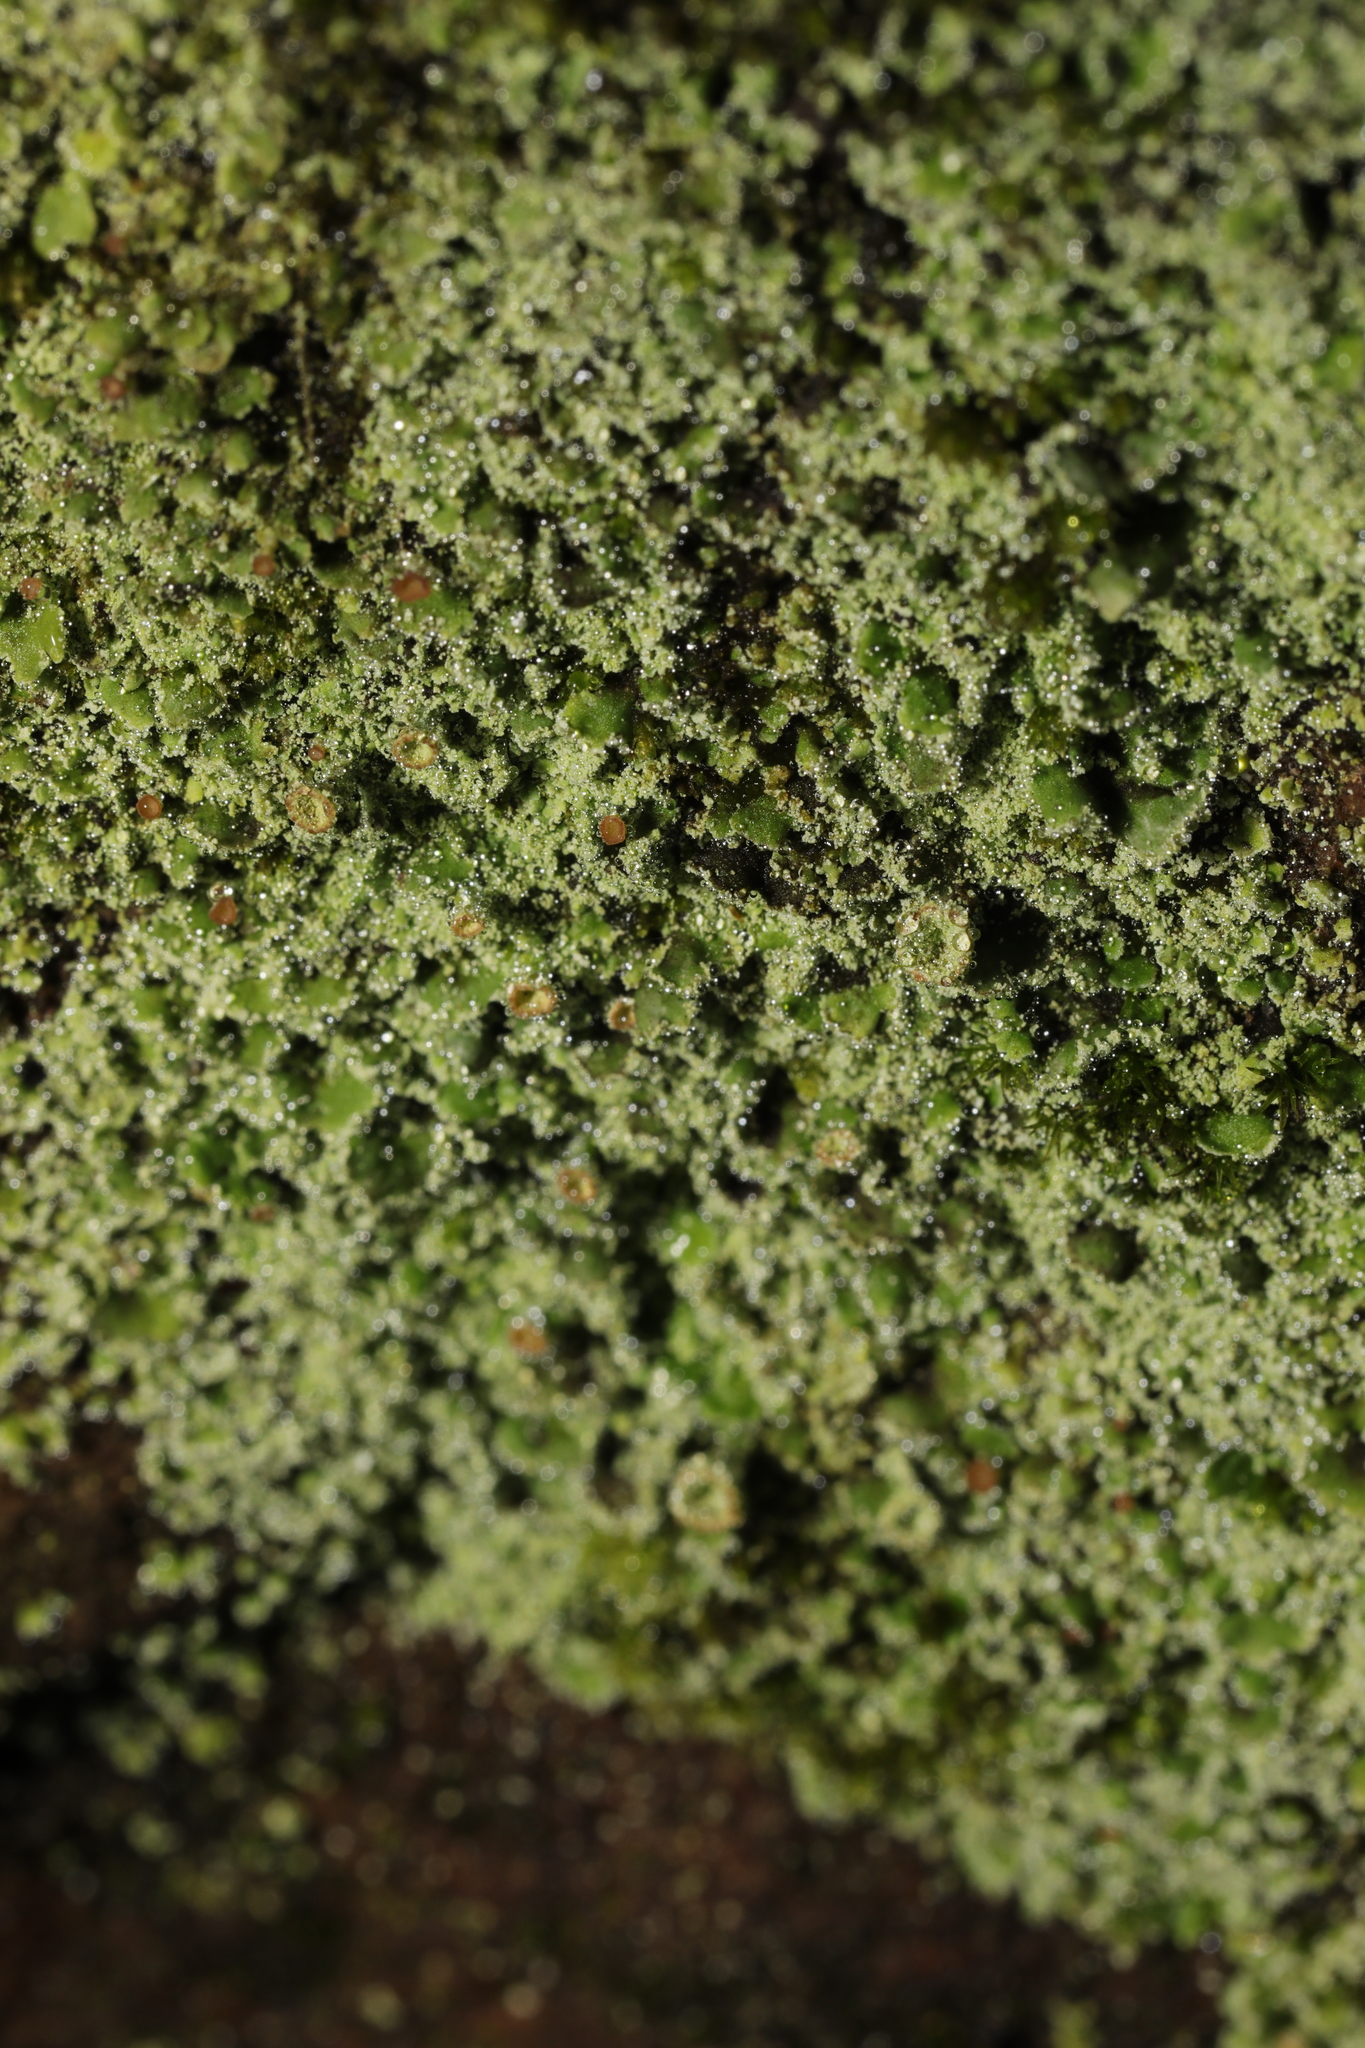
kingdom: Fungi
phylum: Ascomycota
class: Lecanoromycetes
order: Lecanorales
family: Cladoniaceae
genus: Cladonia
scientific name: Cladonia
